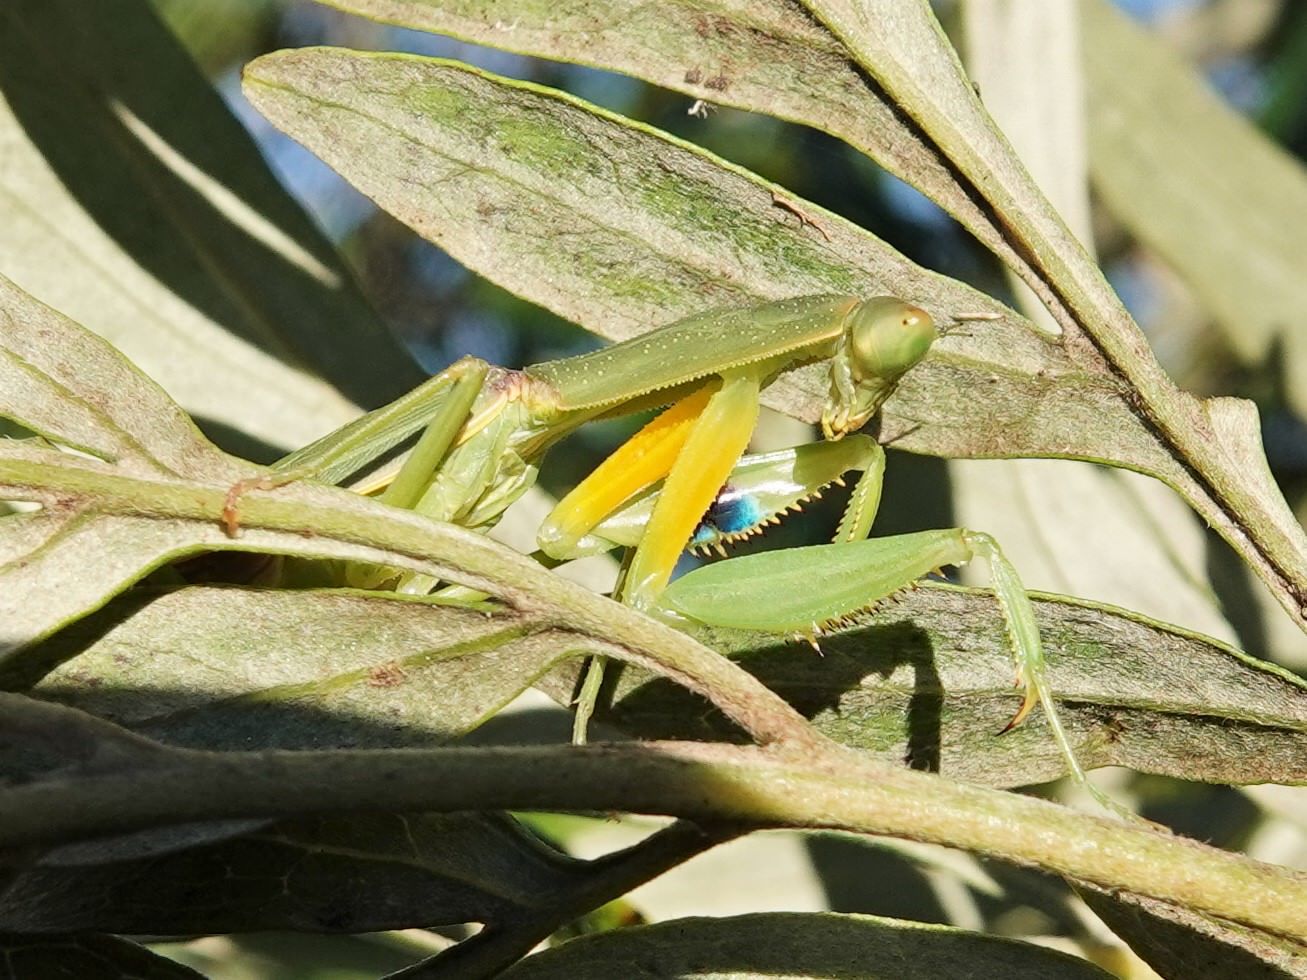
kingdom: Animalia
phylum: Arthropoda
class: Insecta
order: Mantodea
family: Mantidae
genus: Orthodera
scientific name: Orthodera novaezealandiae
